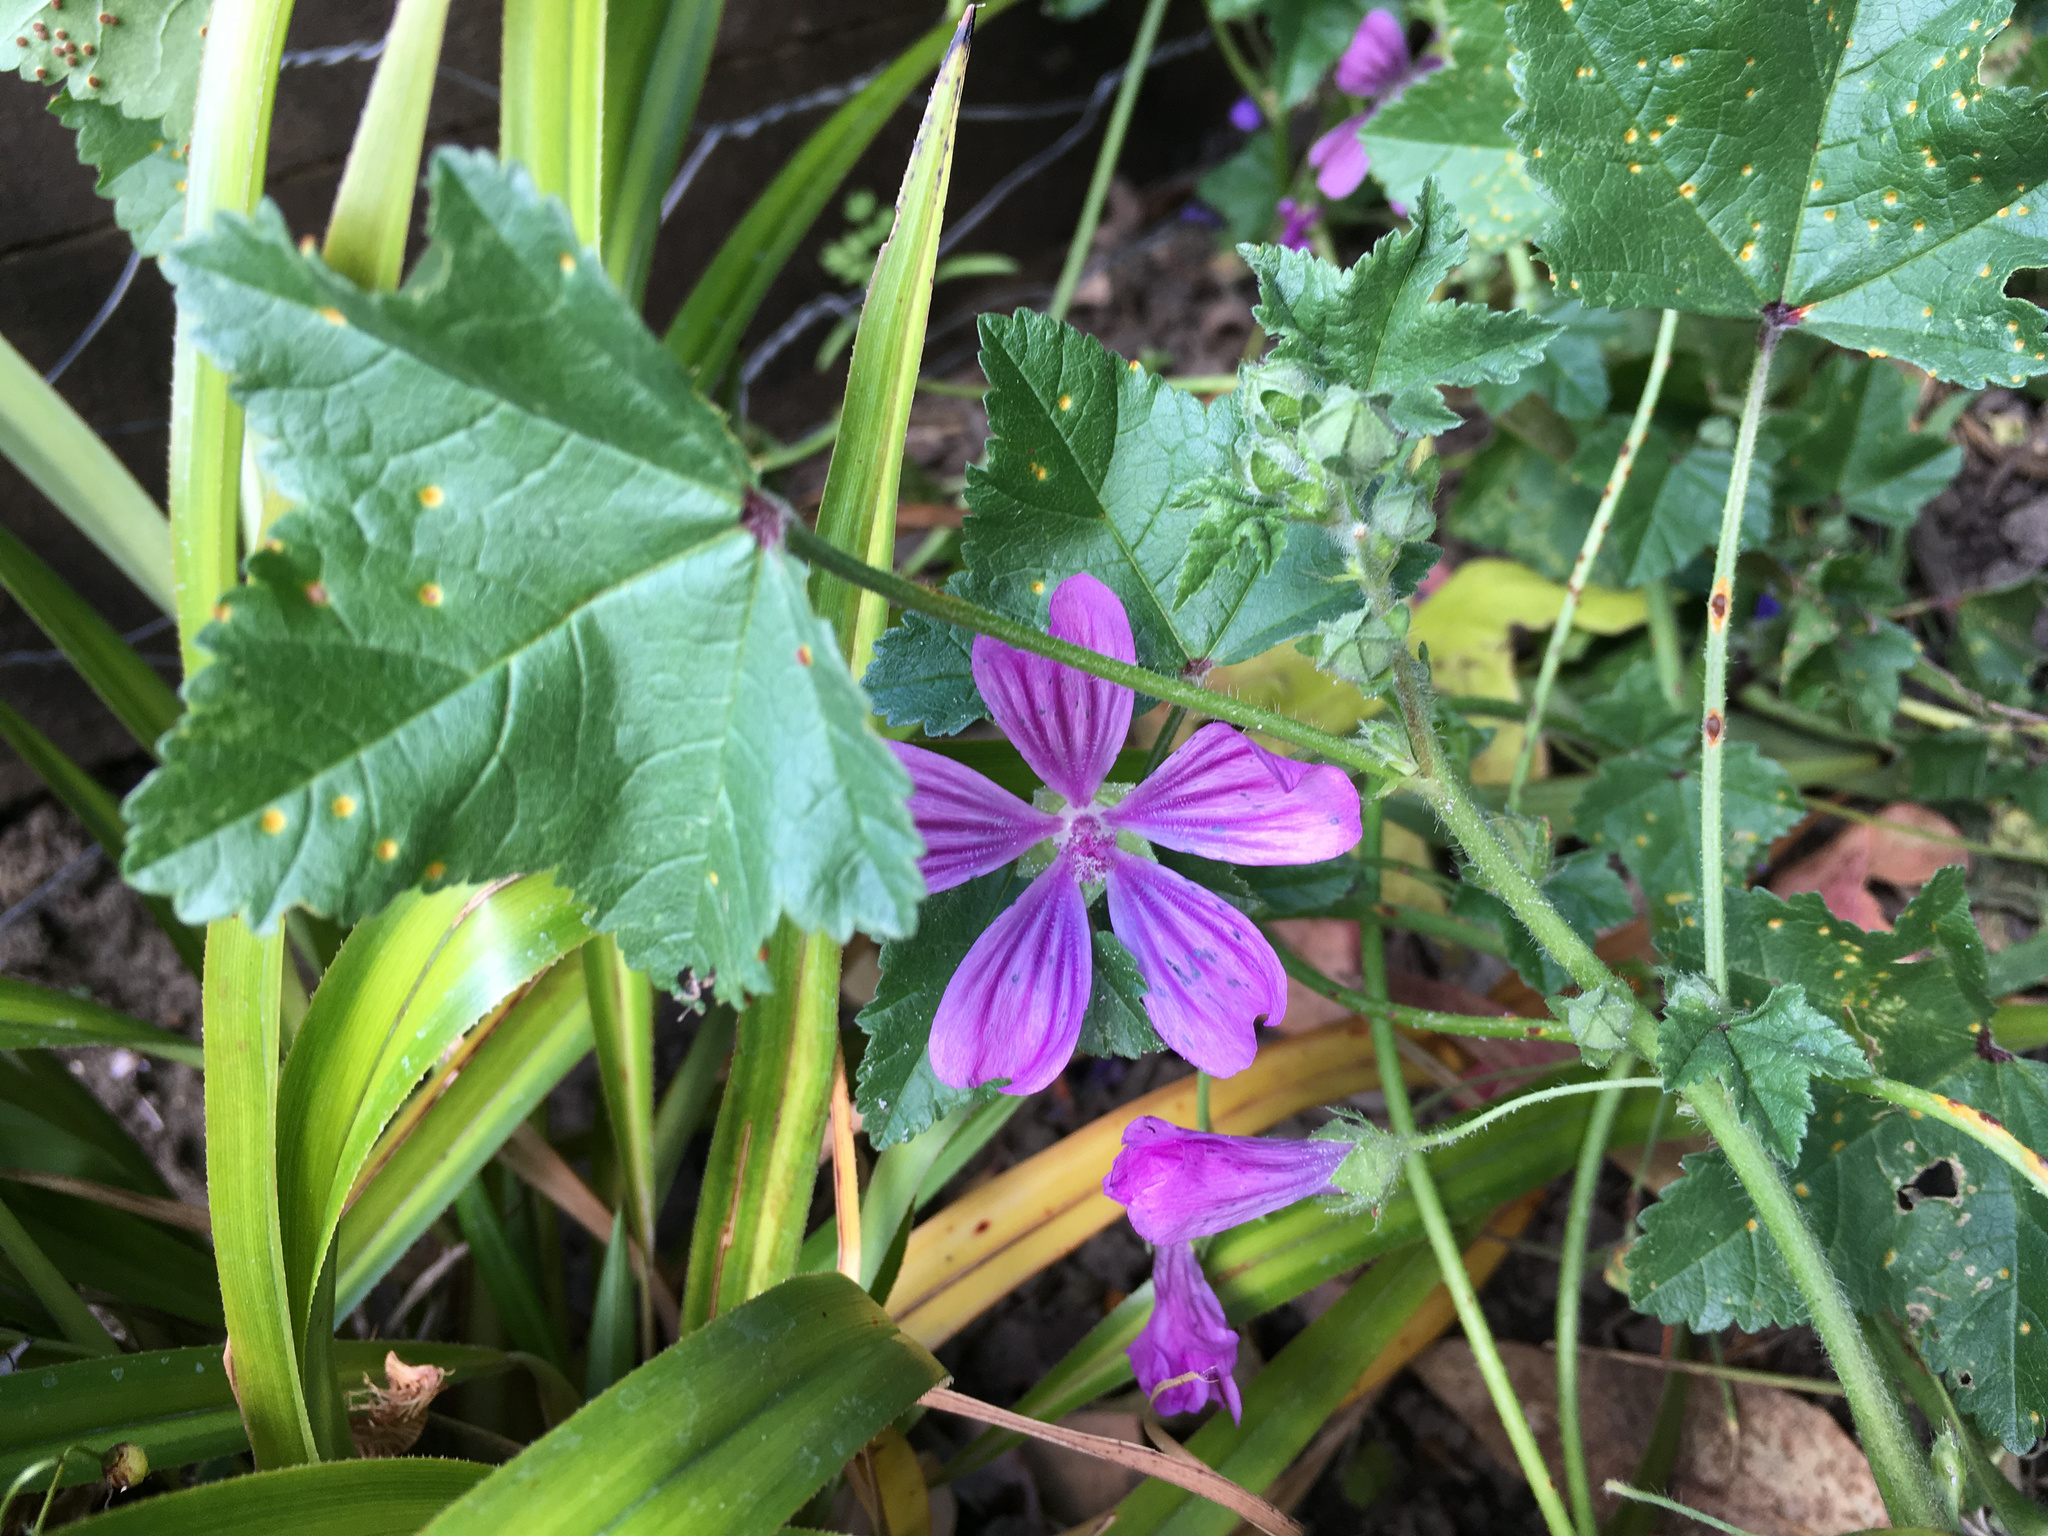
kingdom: Plantae
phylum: Tracheophyta
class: Magnoliopsida
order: Malvales
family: Malvaceae
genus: Malva
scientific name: Malva sylvestris
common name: Common mallow
